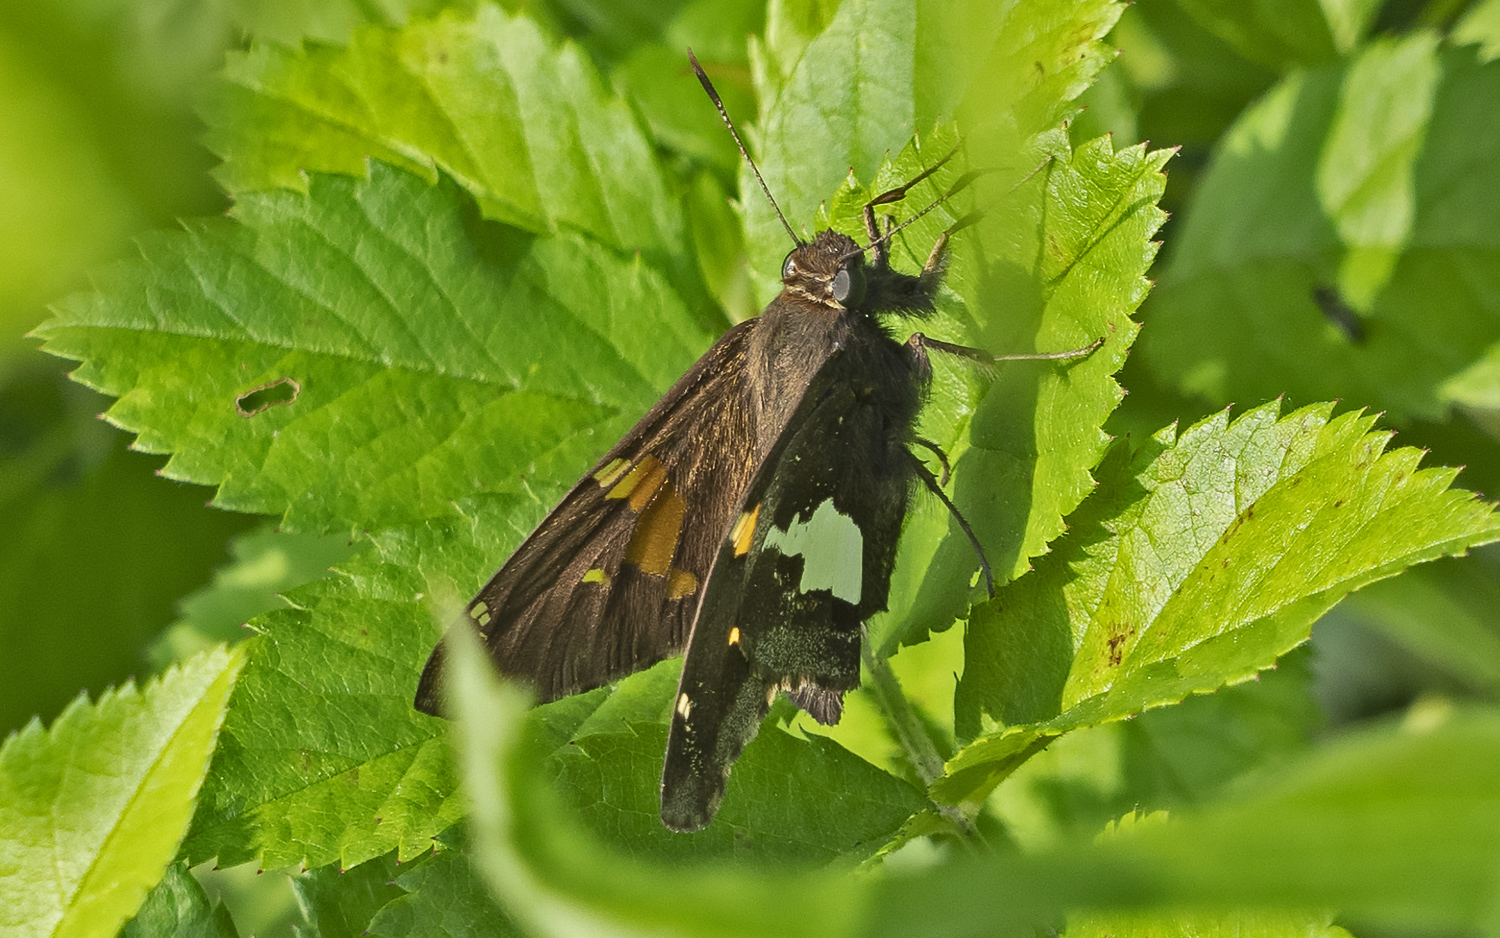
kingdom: Animalia
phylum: Arthropoda
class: Insecta
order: Lepidoptera
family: Hesperiidae
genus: Epargyreus
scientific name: Epargyreus clarus
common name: Silver-spotted skipper
